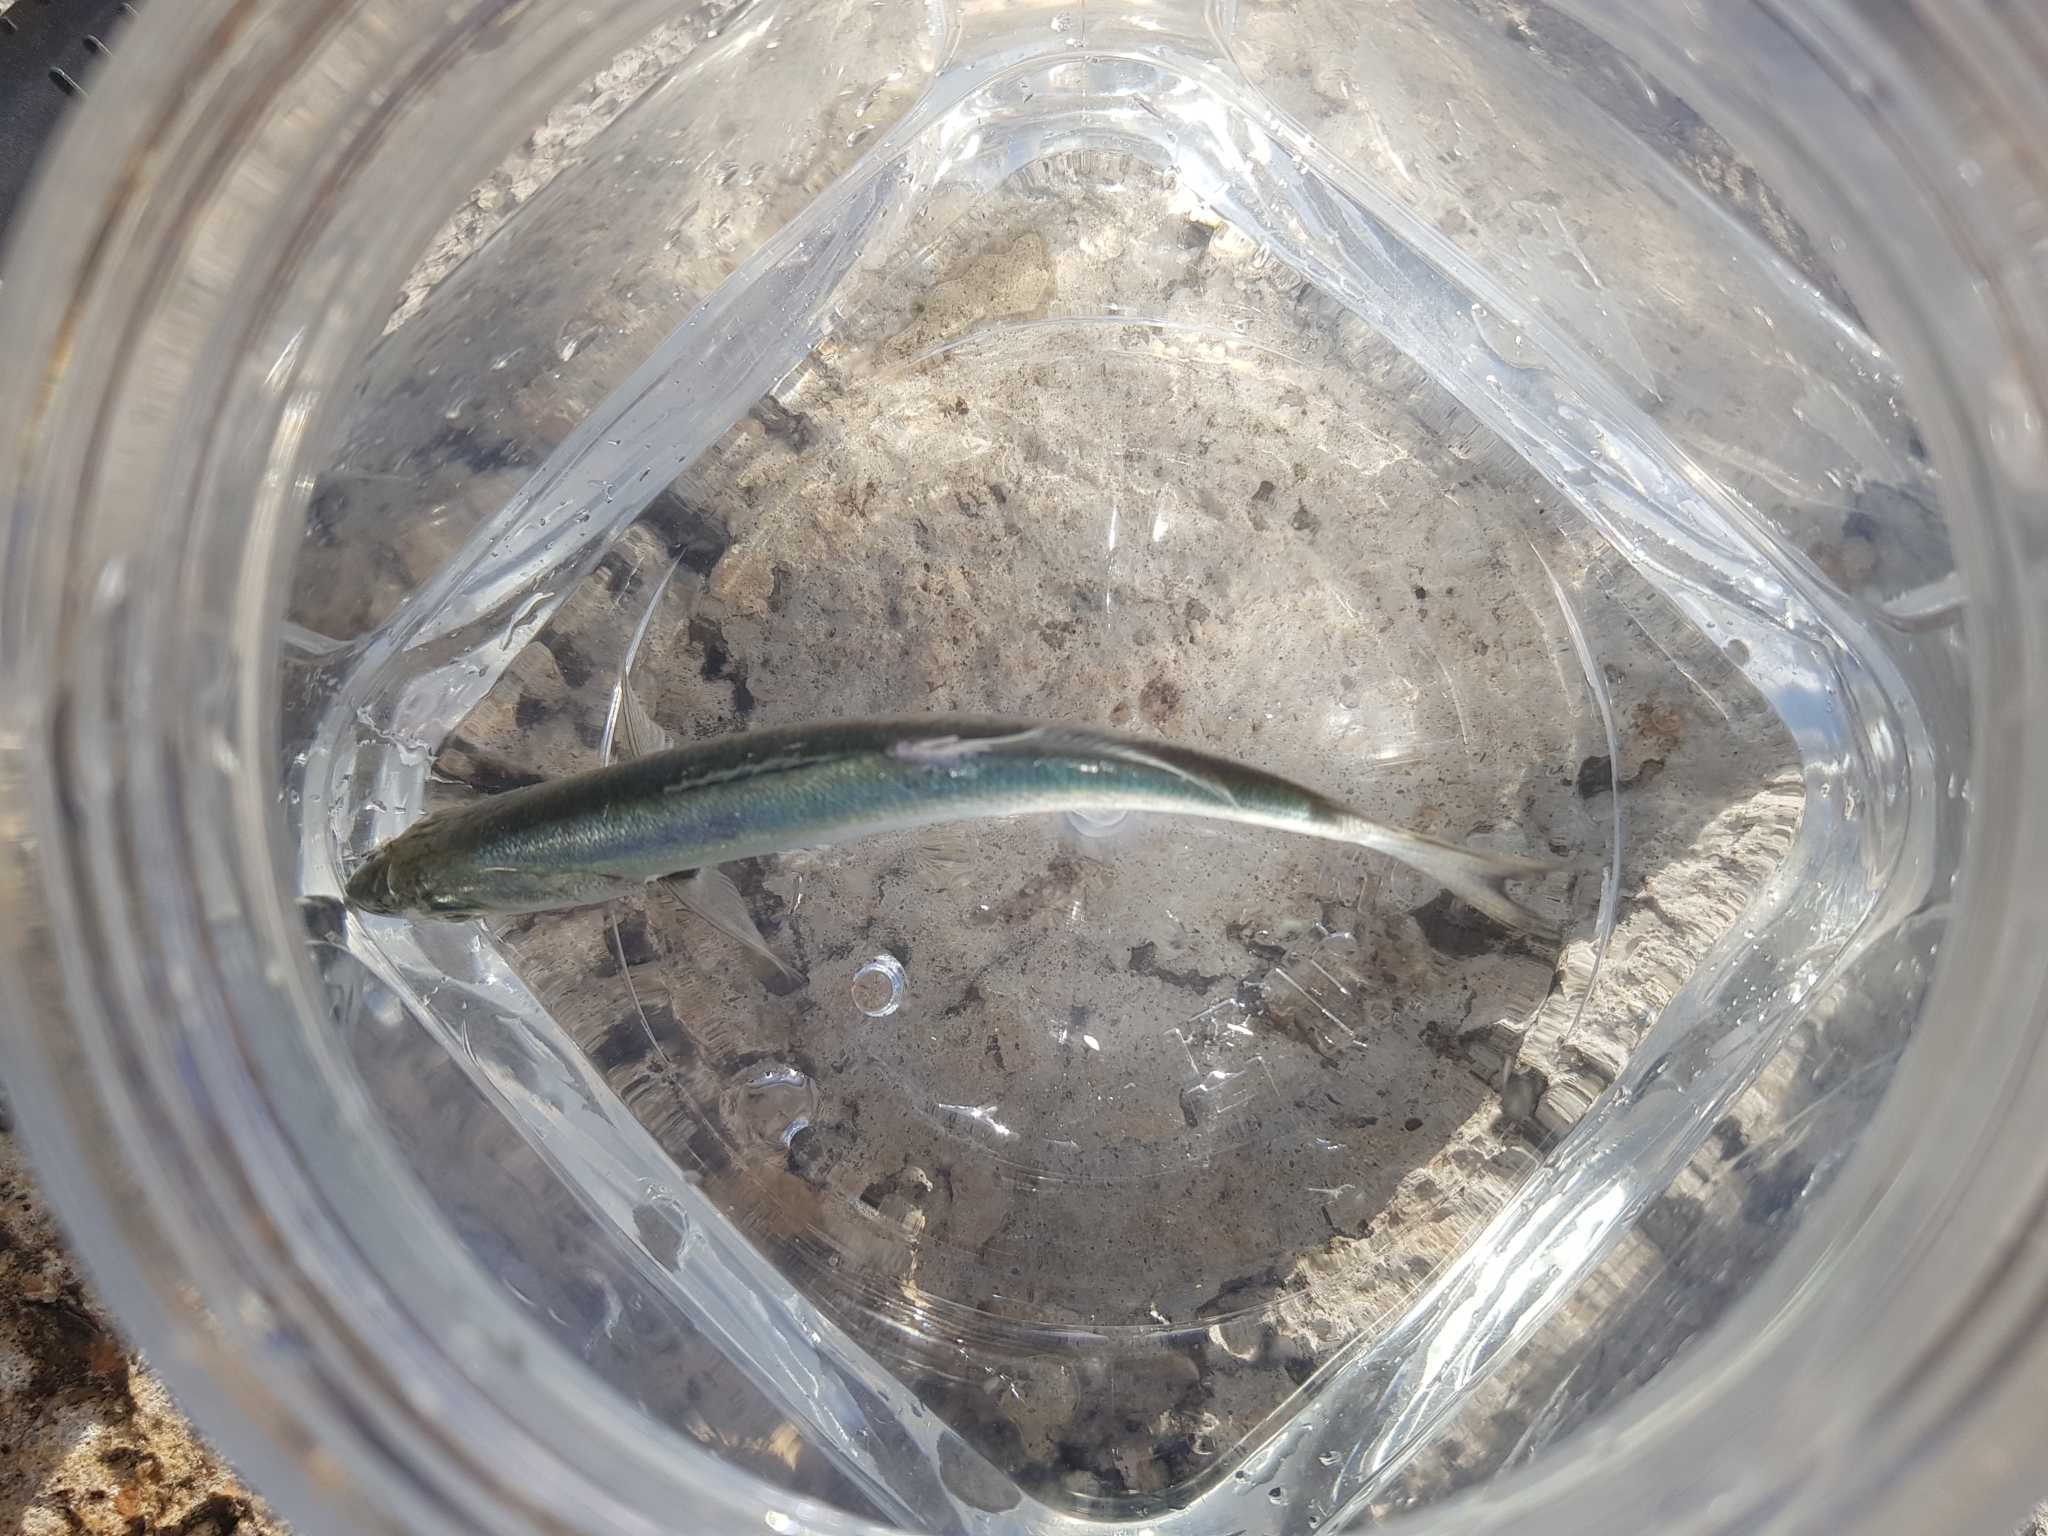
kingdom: Animalia
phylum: Chordata
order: Perciformes
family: Pomatomidae
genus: Pomatomus
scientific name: Pomatomus saltatrix
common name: Bluefish
